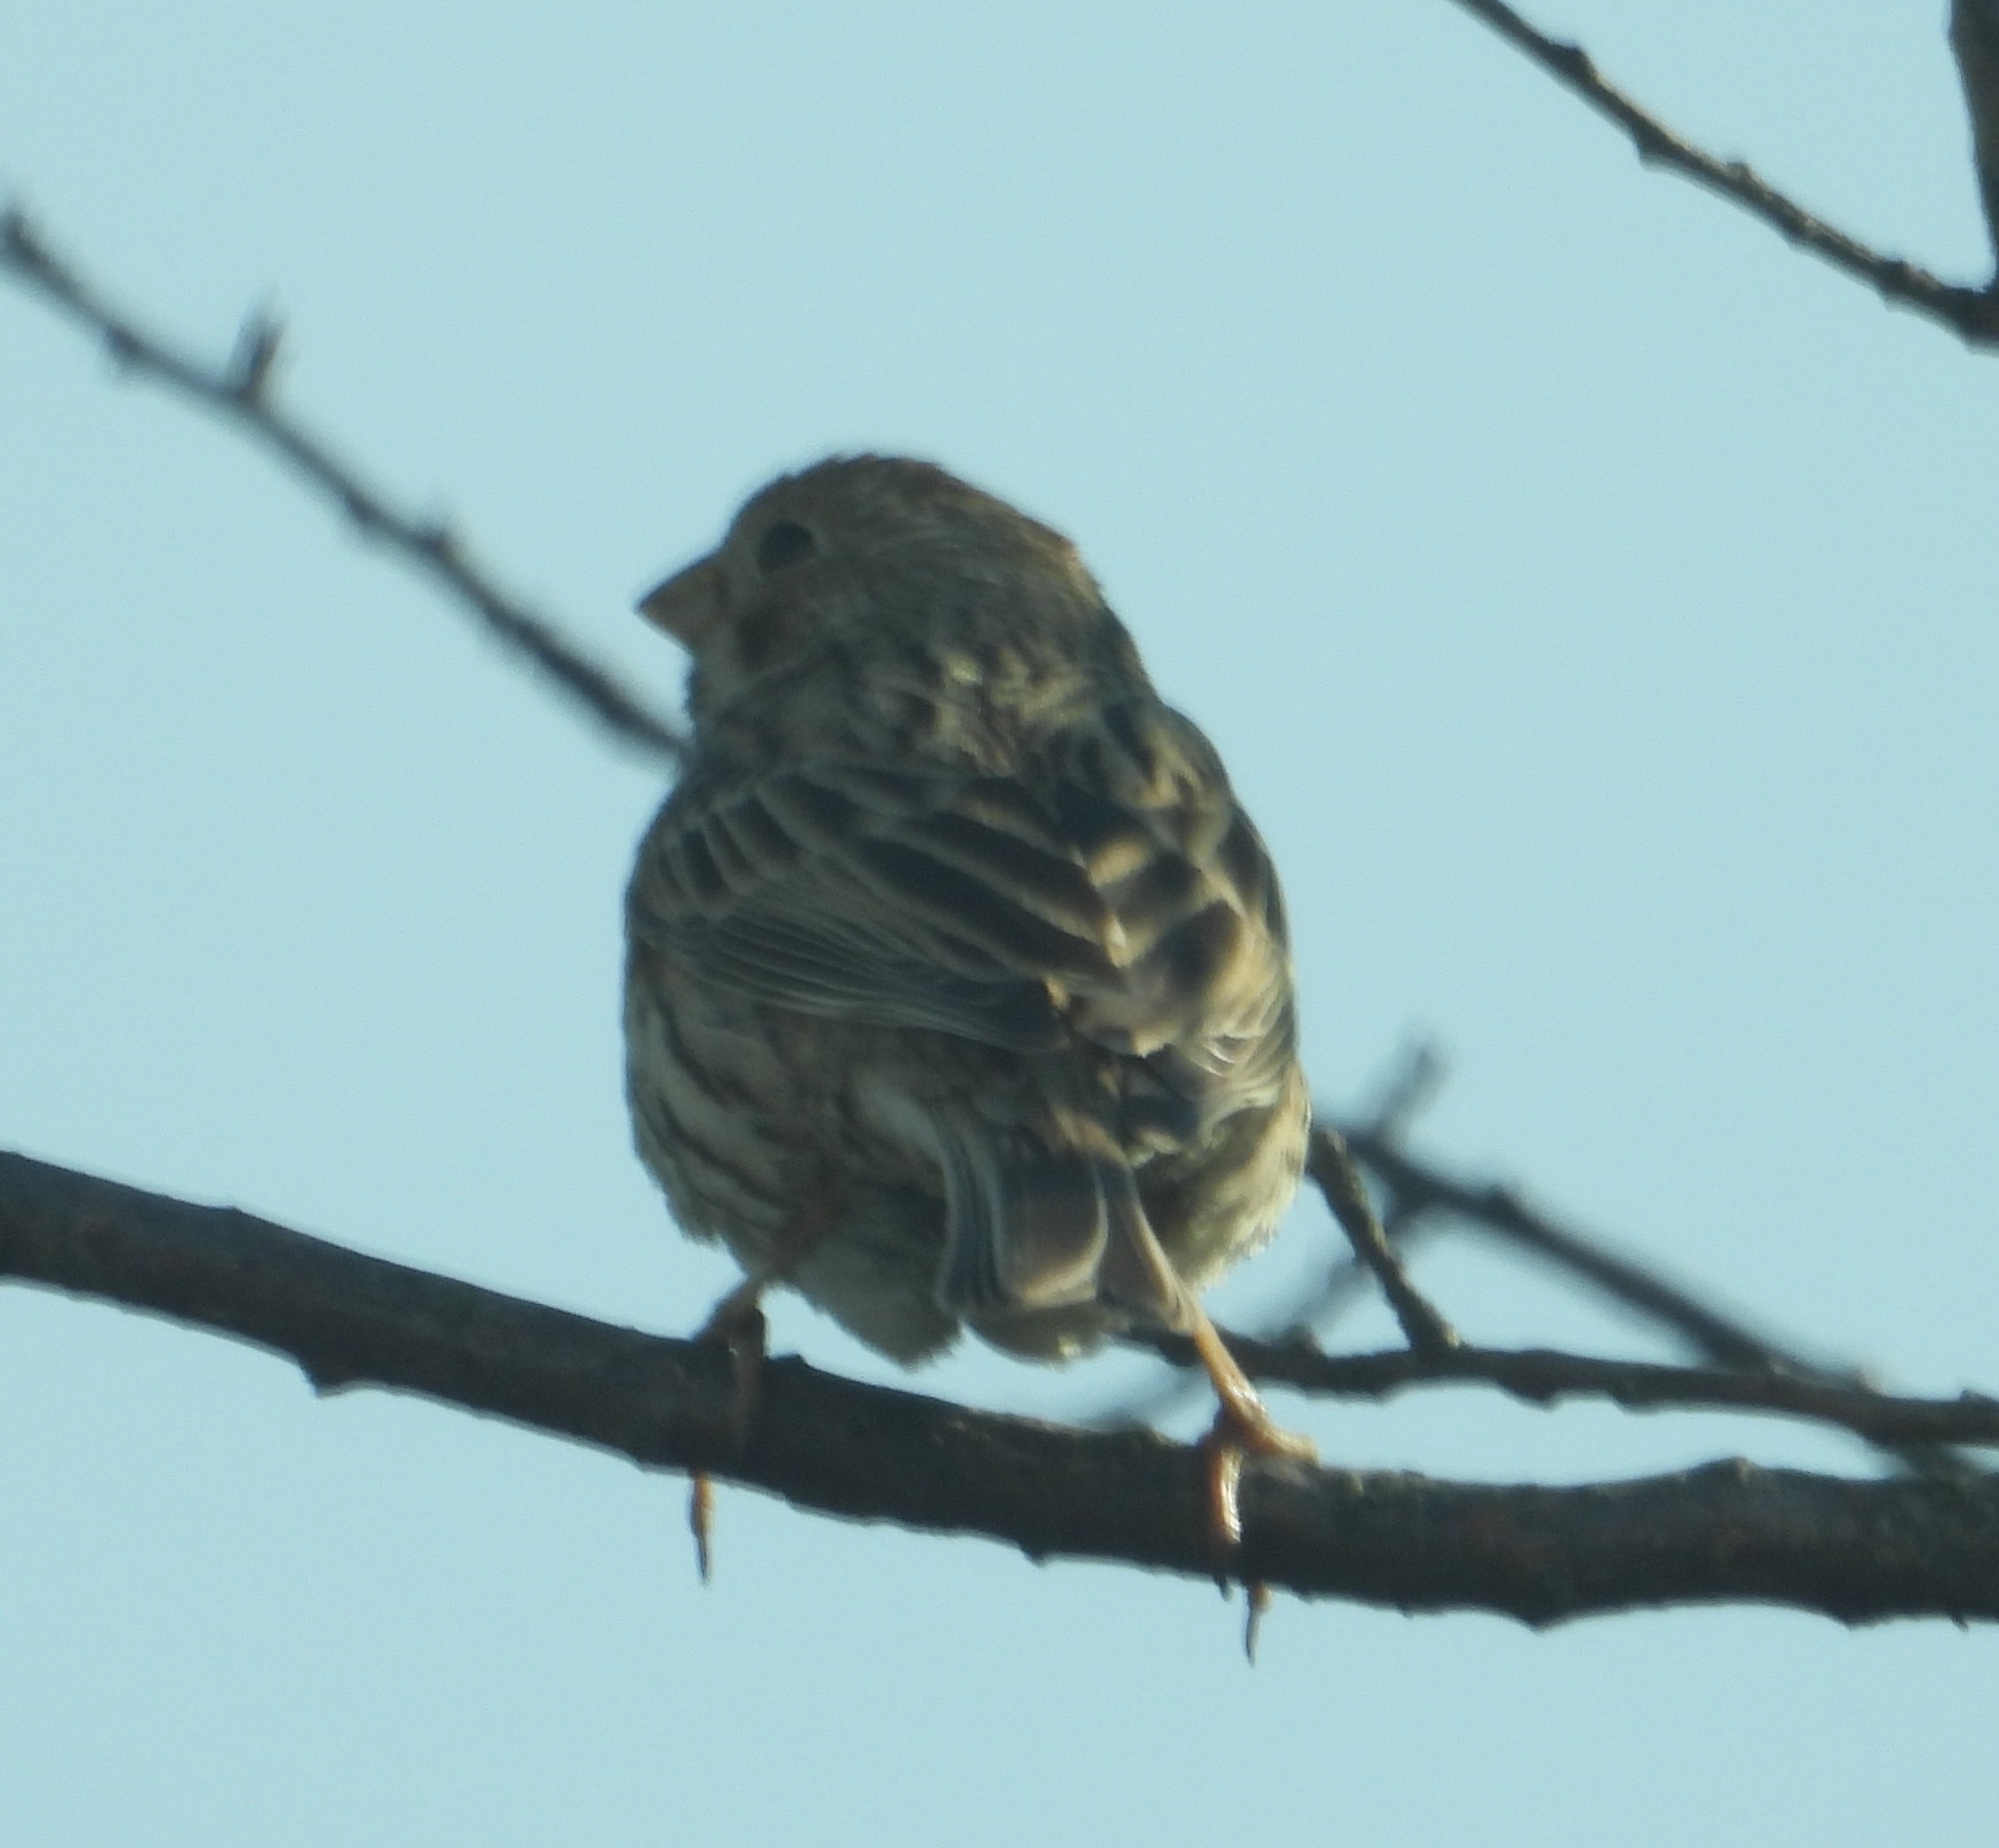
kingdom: Animalia
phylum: Chordata
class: Aves
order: Passeriformes
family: Emberizidae
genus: Emberiza
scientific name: Emberiza calandra
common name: Corn bunting
